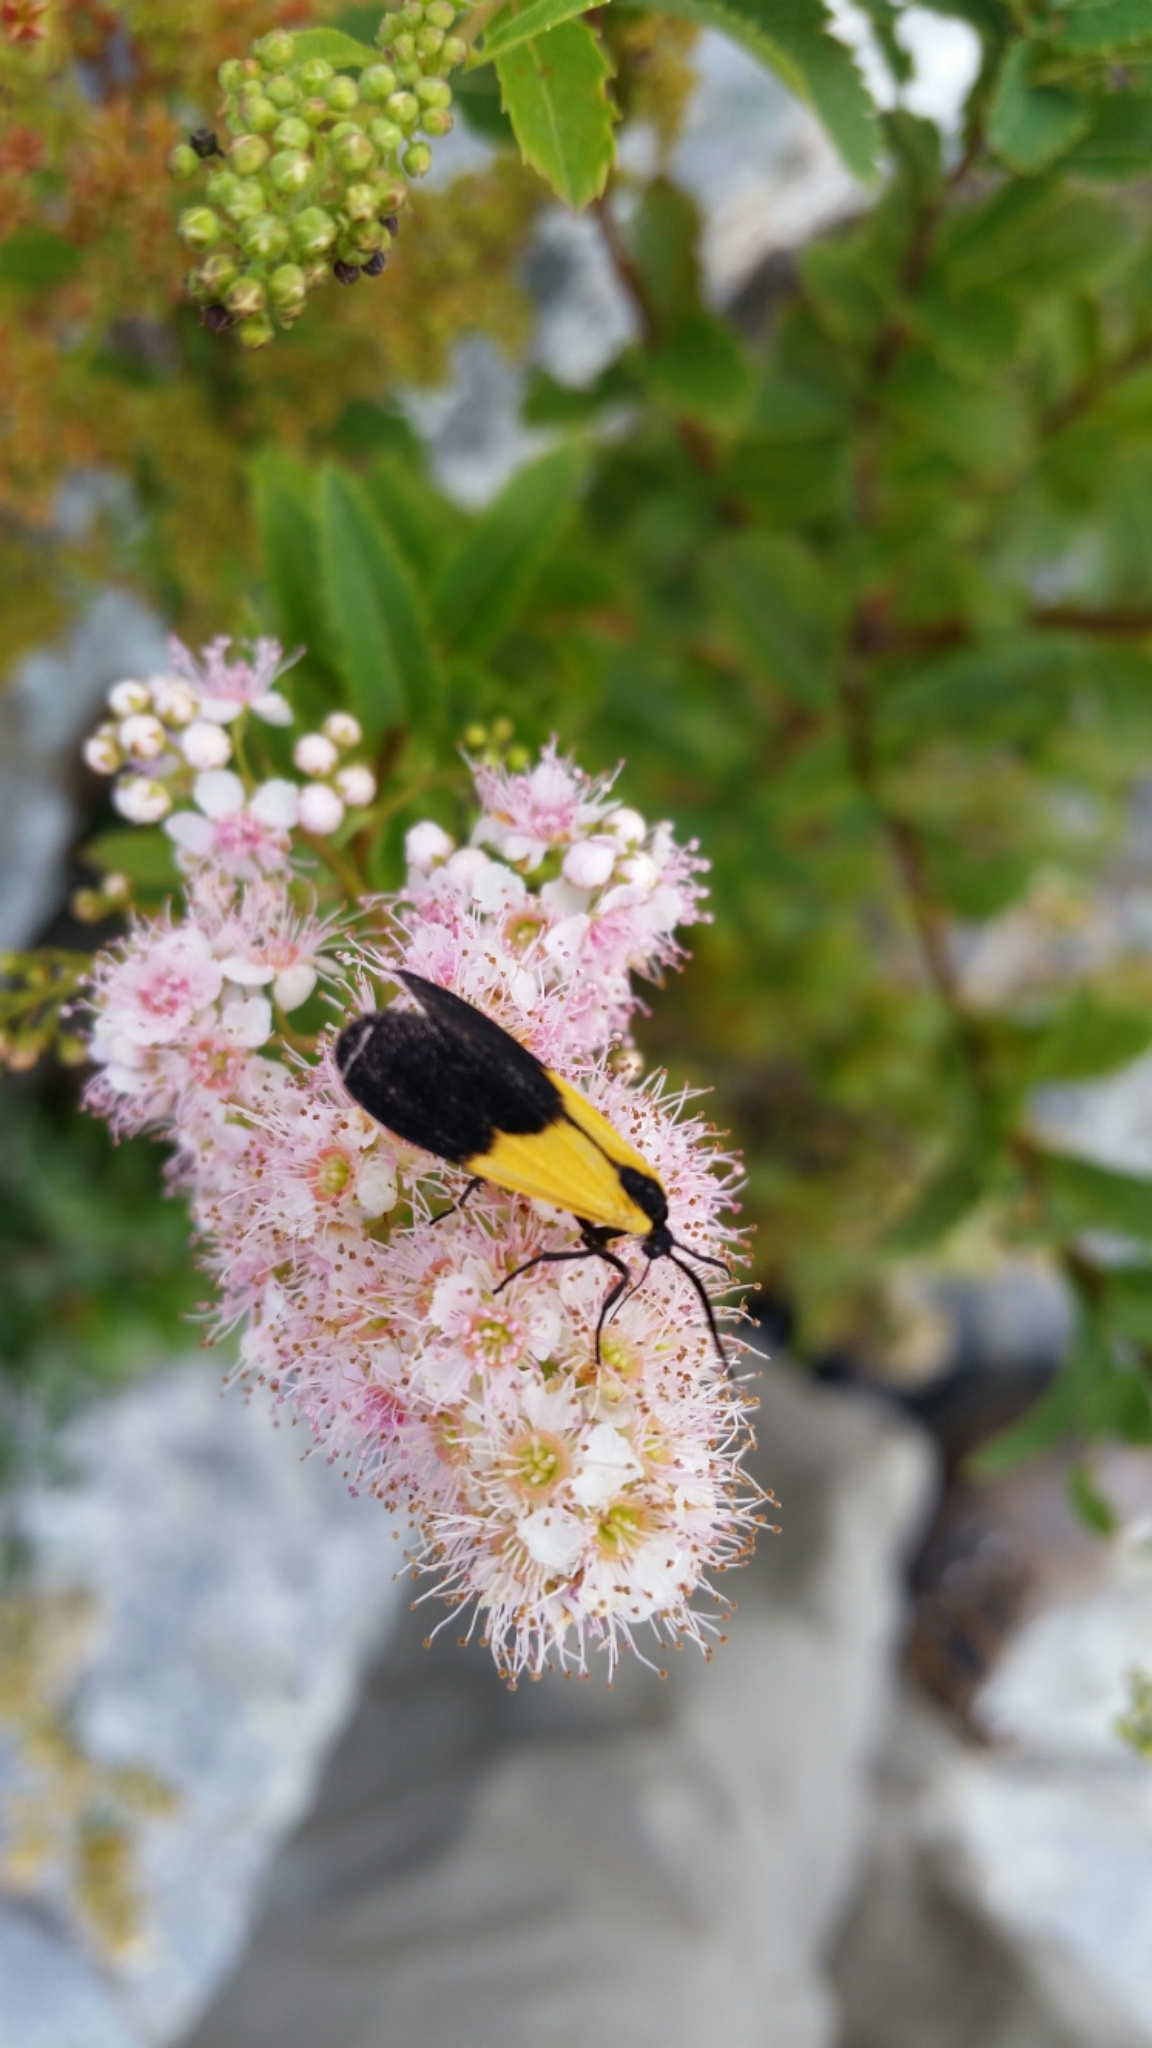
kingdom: Animalia
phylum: Arthropoda
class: Insecta
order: Lepidoptera
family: Erebidae
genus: Lycomorpha
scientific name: Lycomorpha pholus
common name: Black-and-yellow lichen moth
